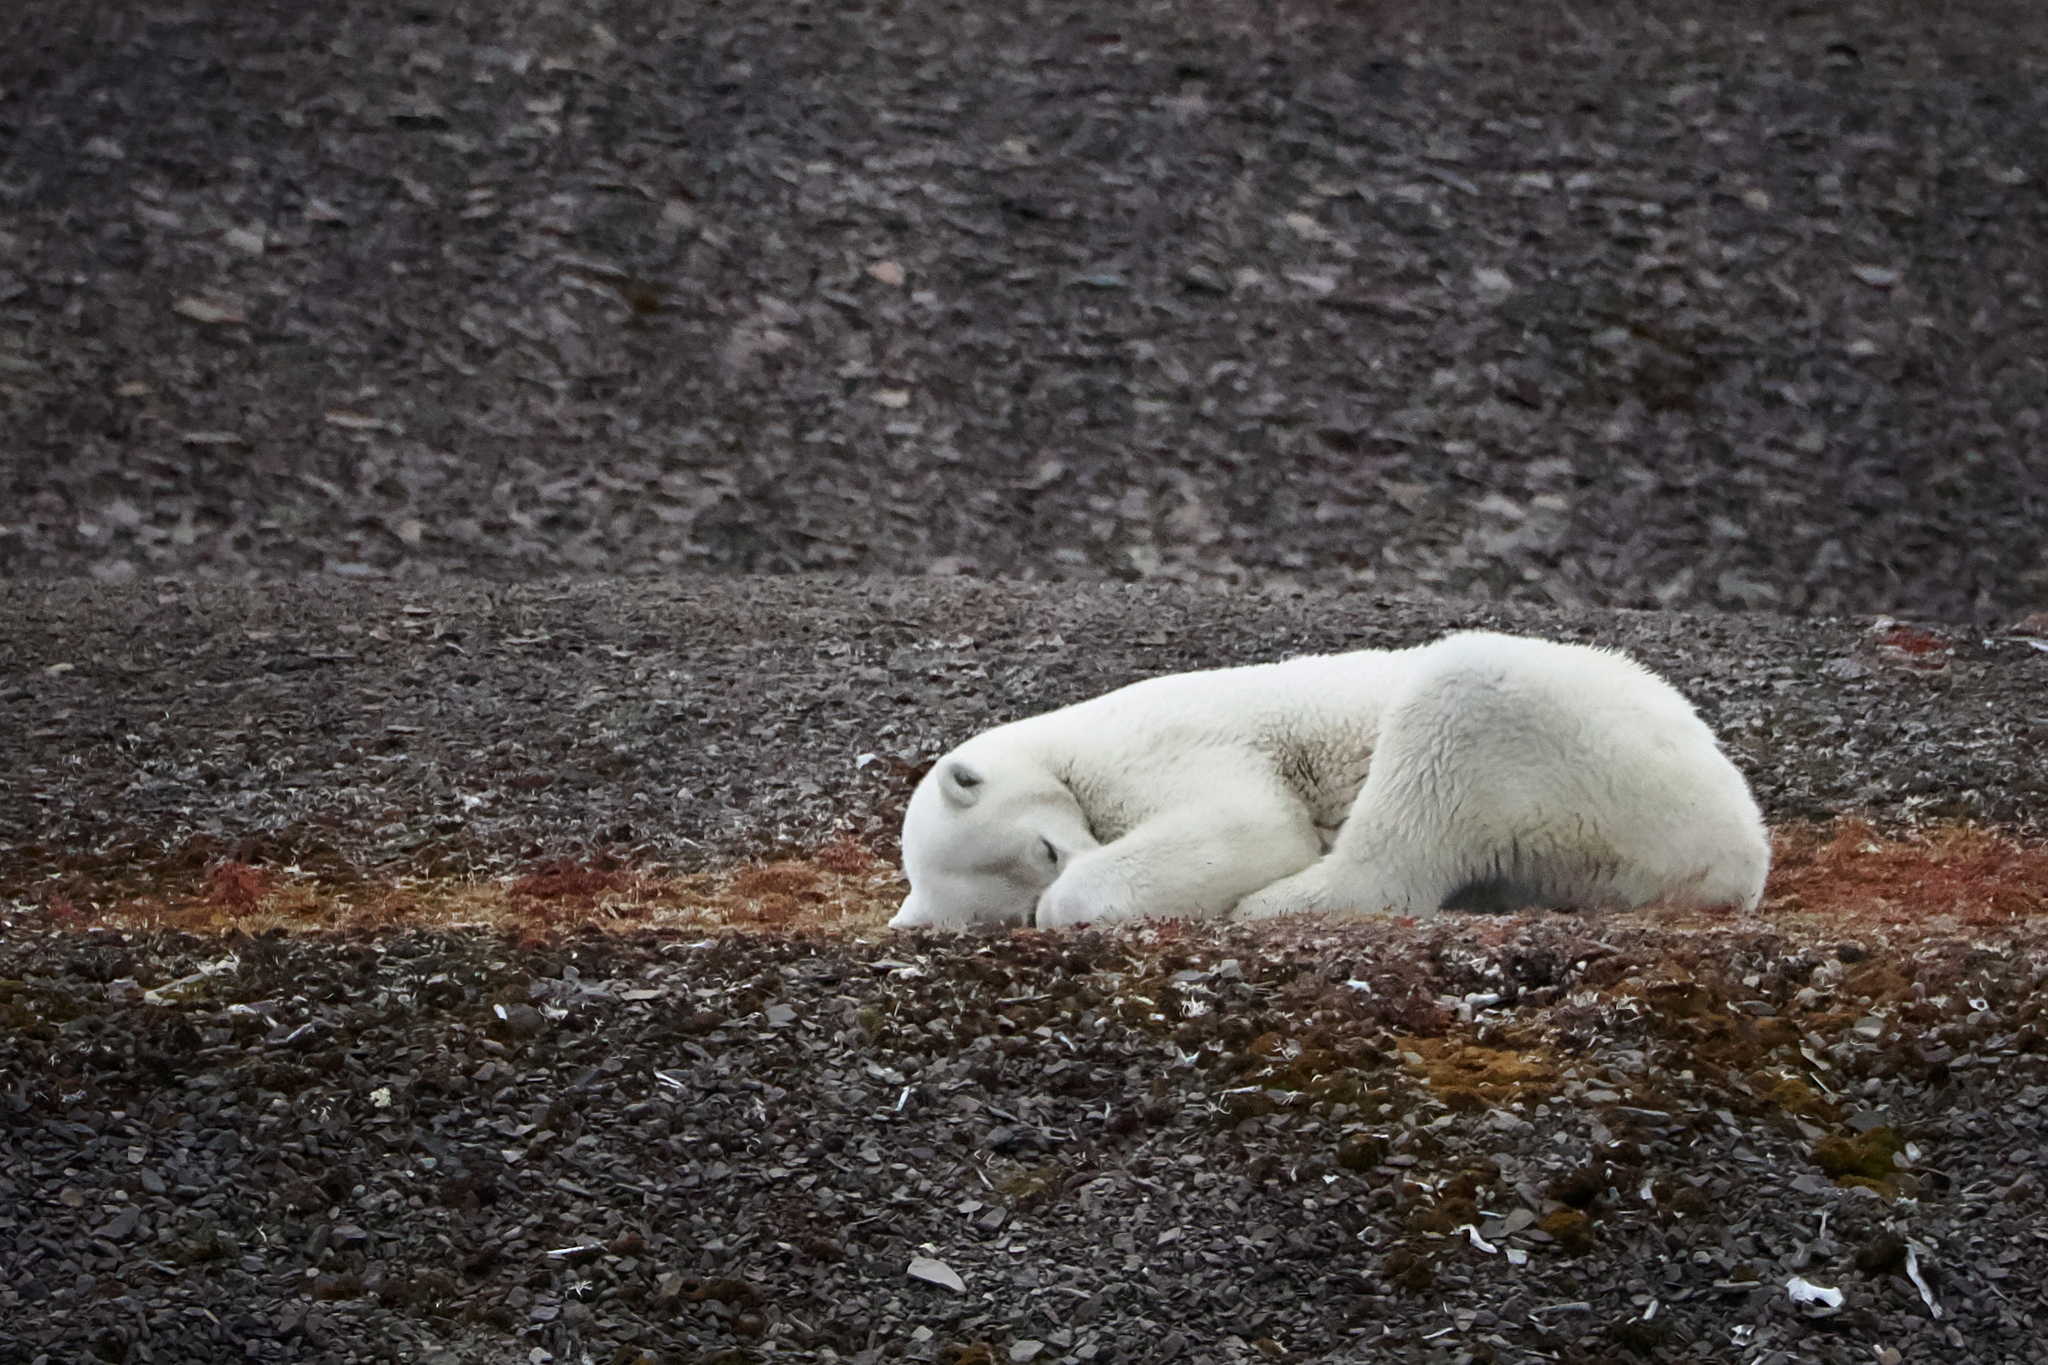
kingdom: Animalia
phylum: Chordata
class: Mammalia
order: Carnivora
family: Ursidae
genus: Ursus
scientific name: Ursus maritimus
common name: Polar bear
